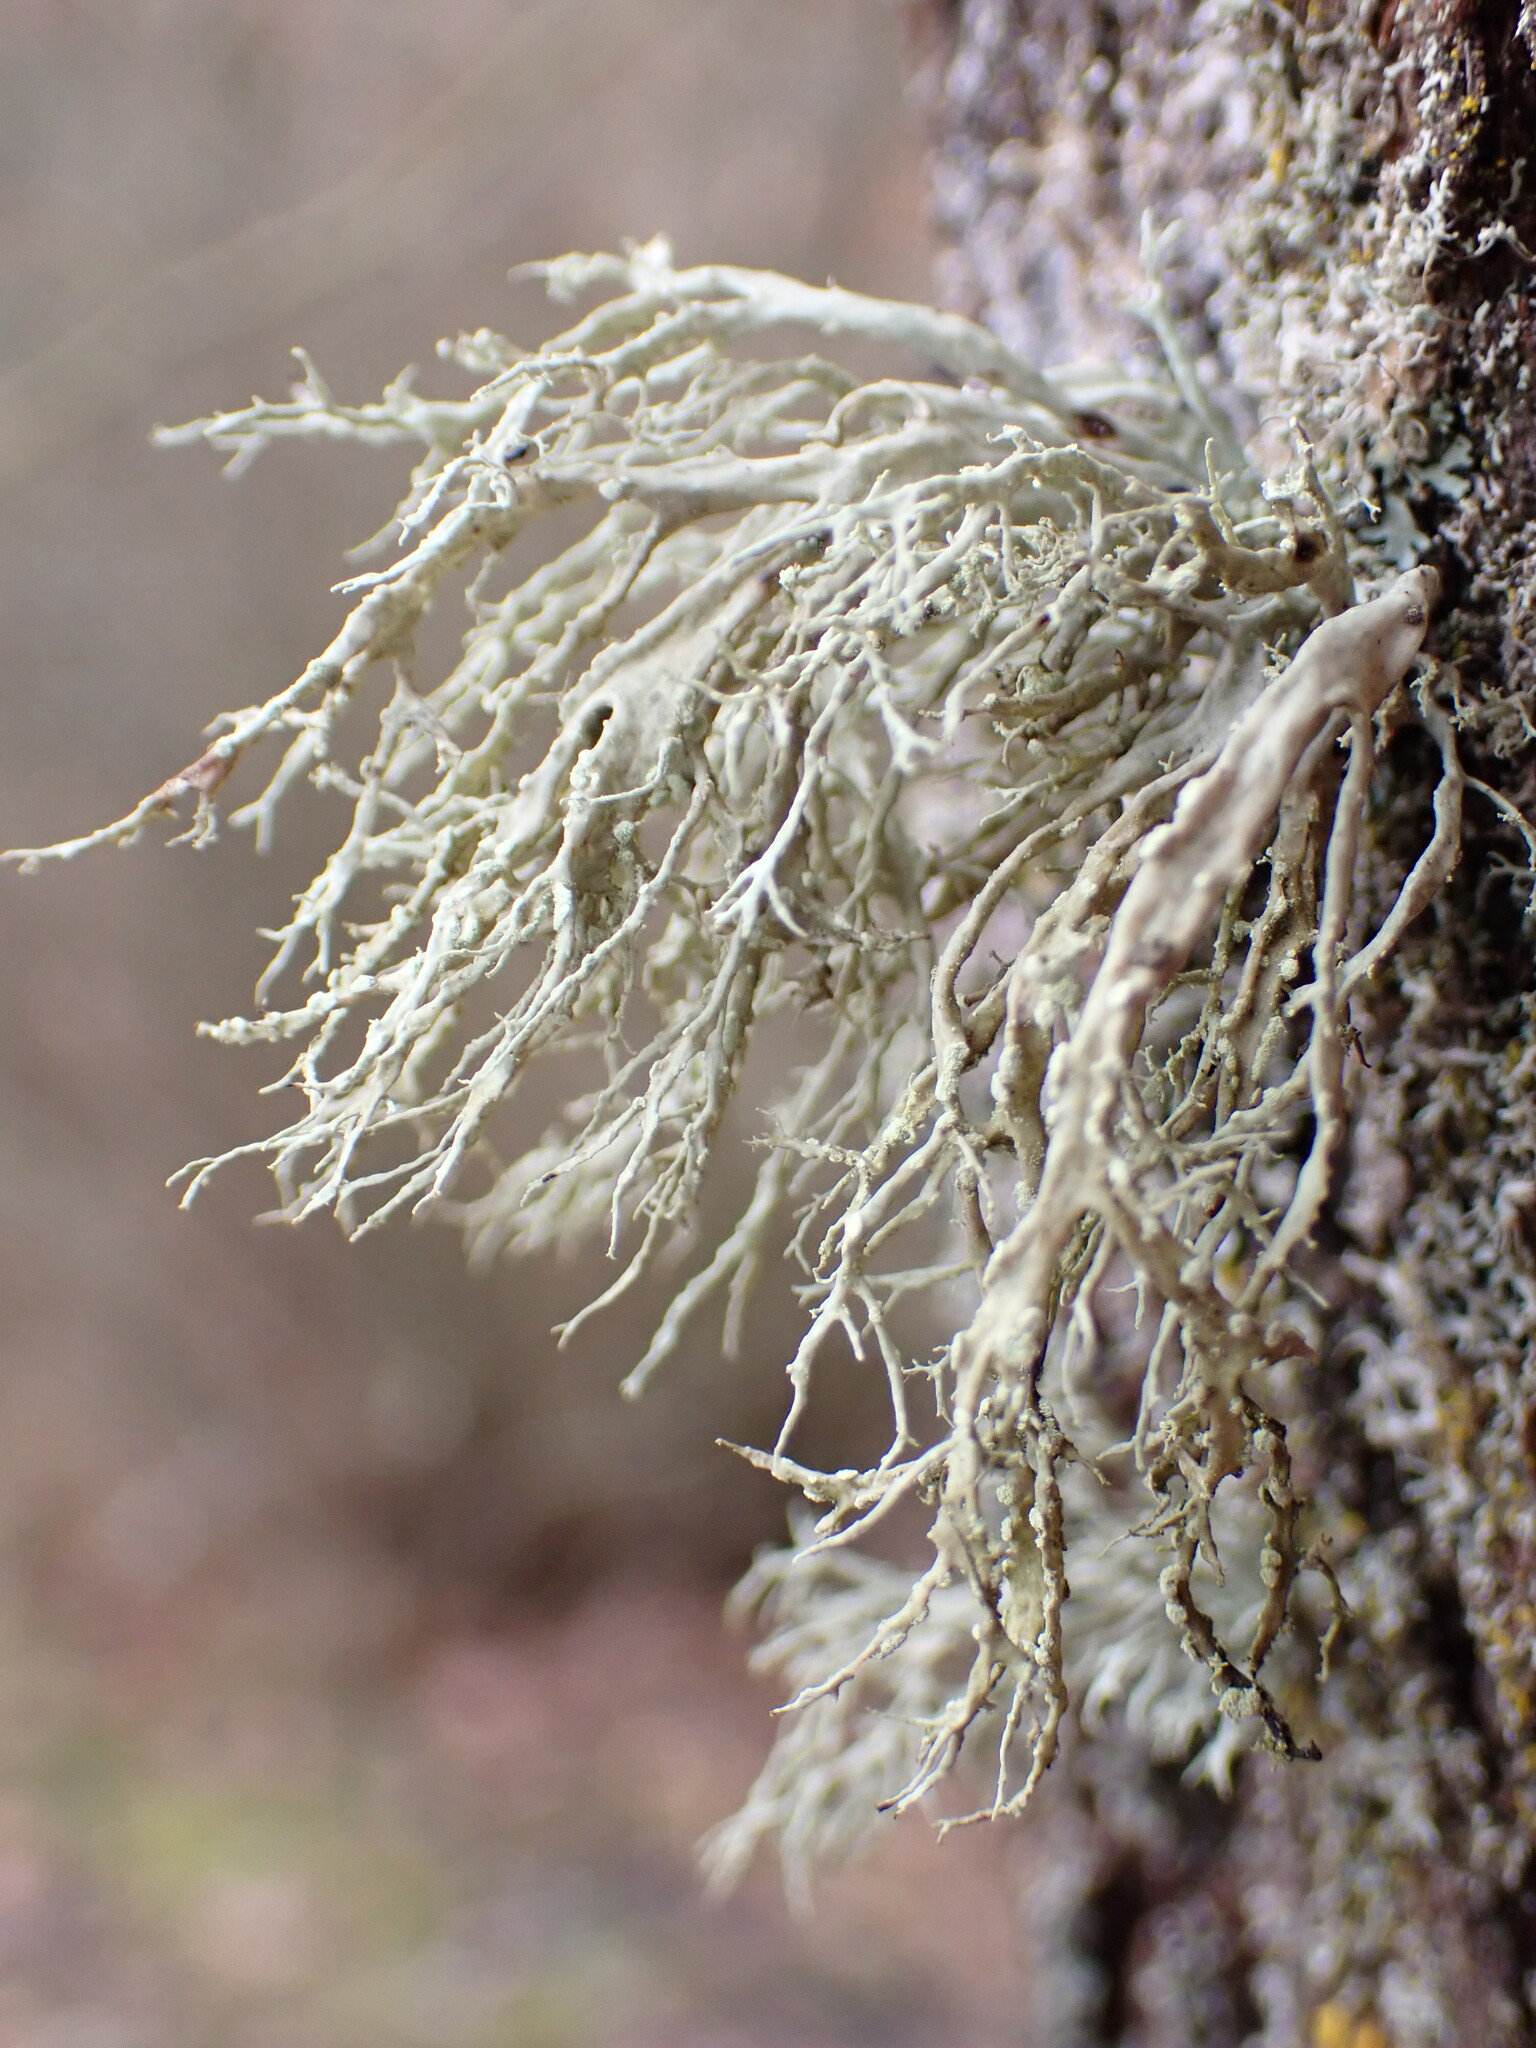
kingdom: Fungi
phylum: Ascomycota
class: Lecanoromycetes
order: Lecanorales
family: Ramalinaceae
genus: Ramalina
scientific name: Ramalina farinacea
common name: Farinose cartilage lichen
